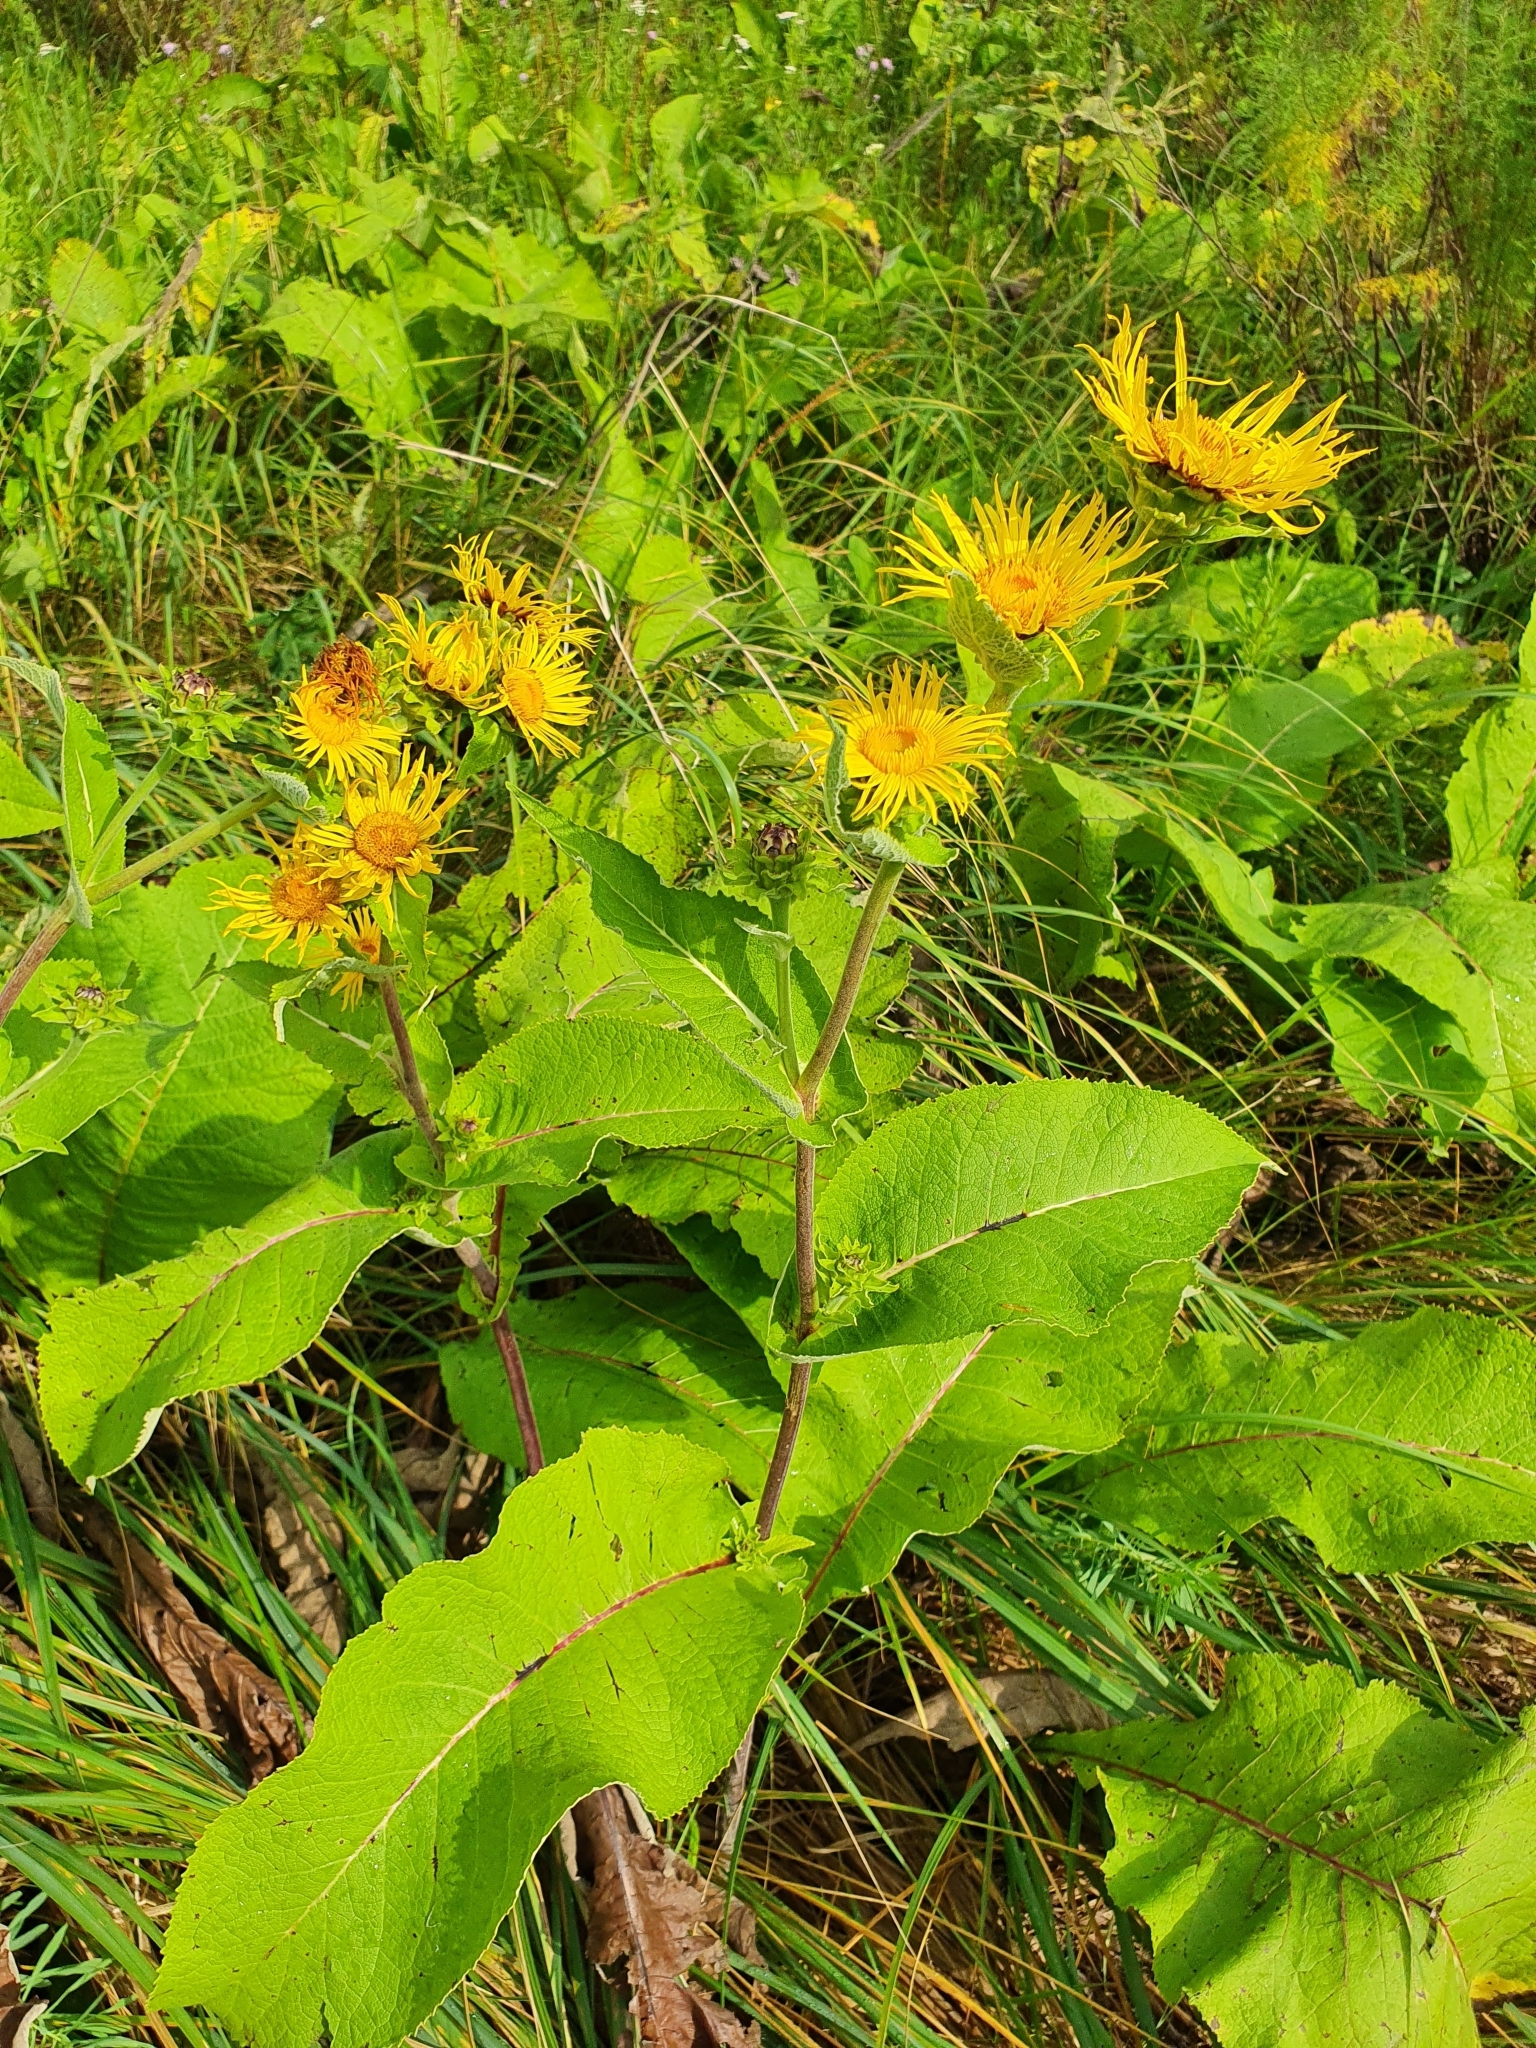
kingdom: Plantae
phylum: Tracheophyta
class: Magnoliopsida
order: Asterales
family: Asteraceae
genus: Inula
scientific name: Inula helenium
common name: Elecampane
